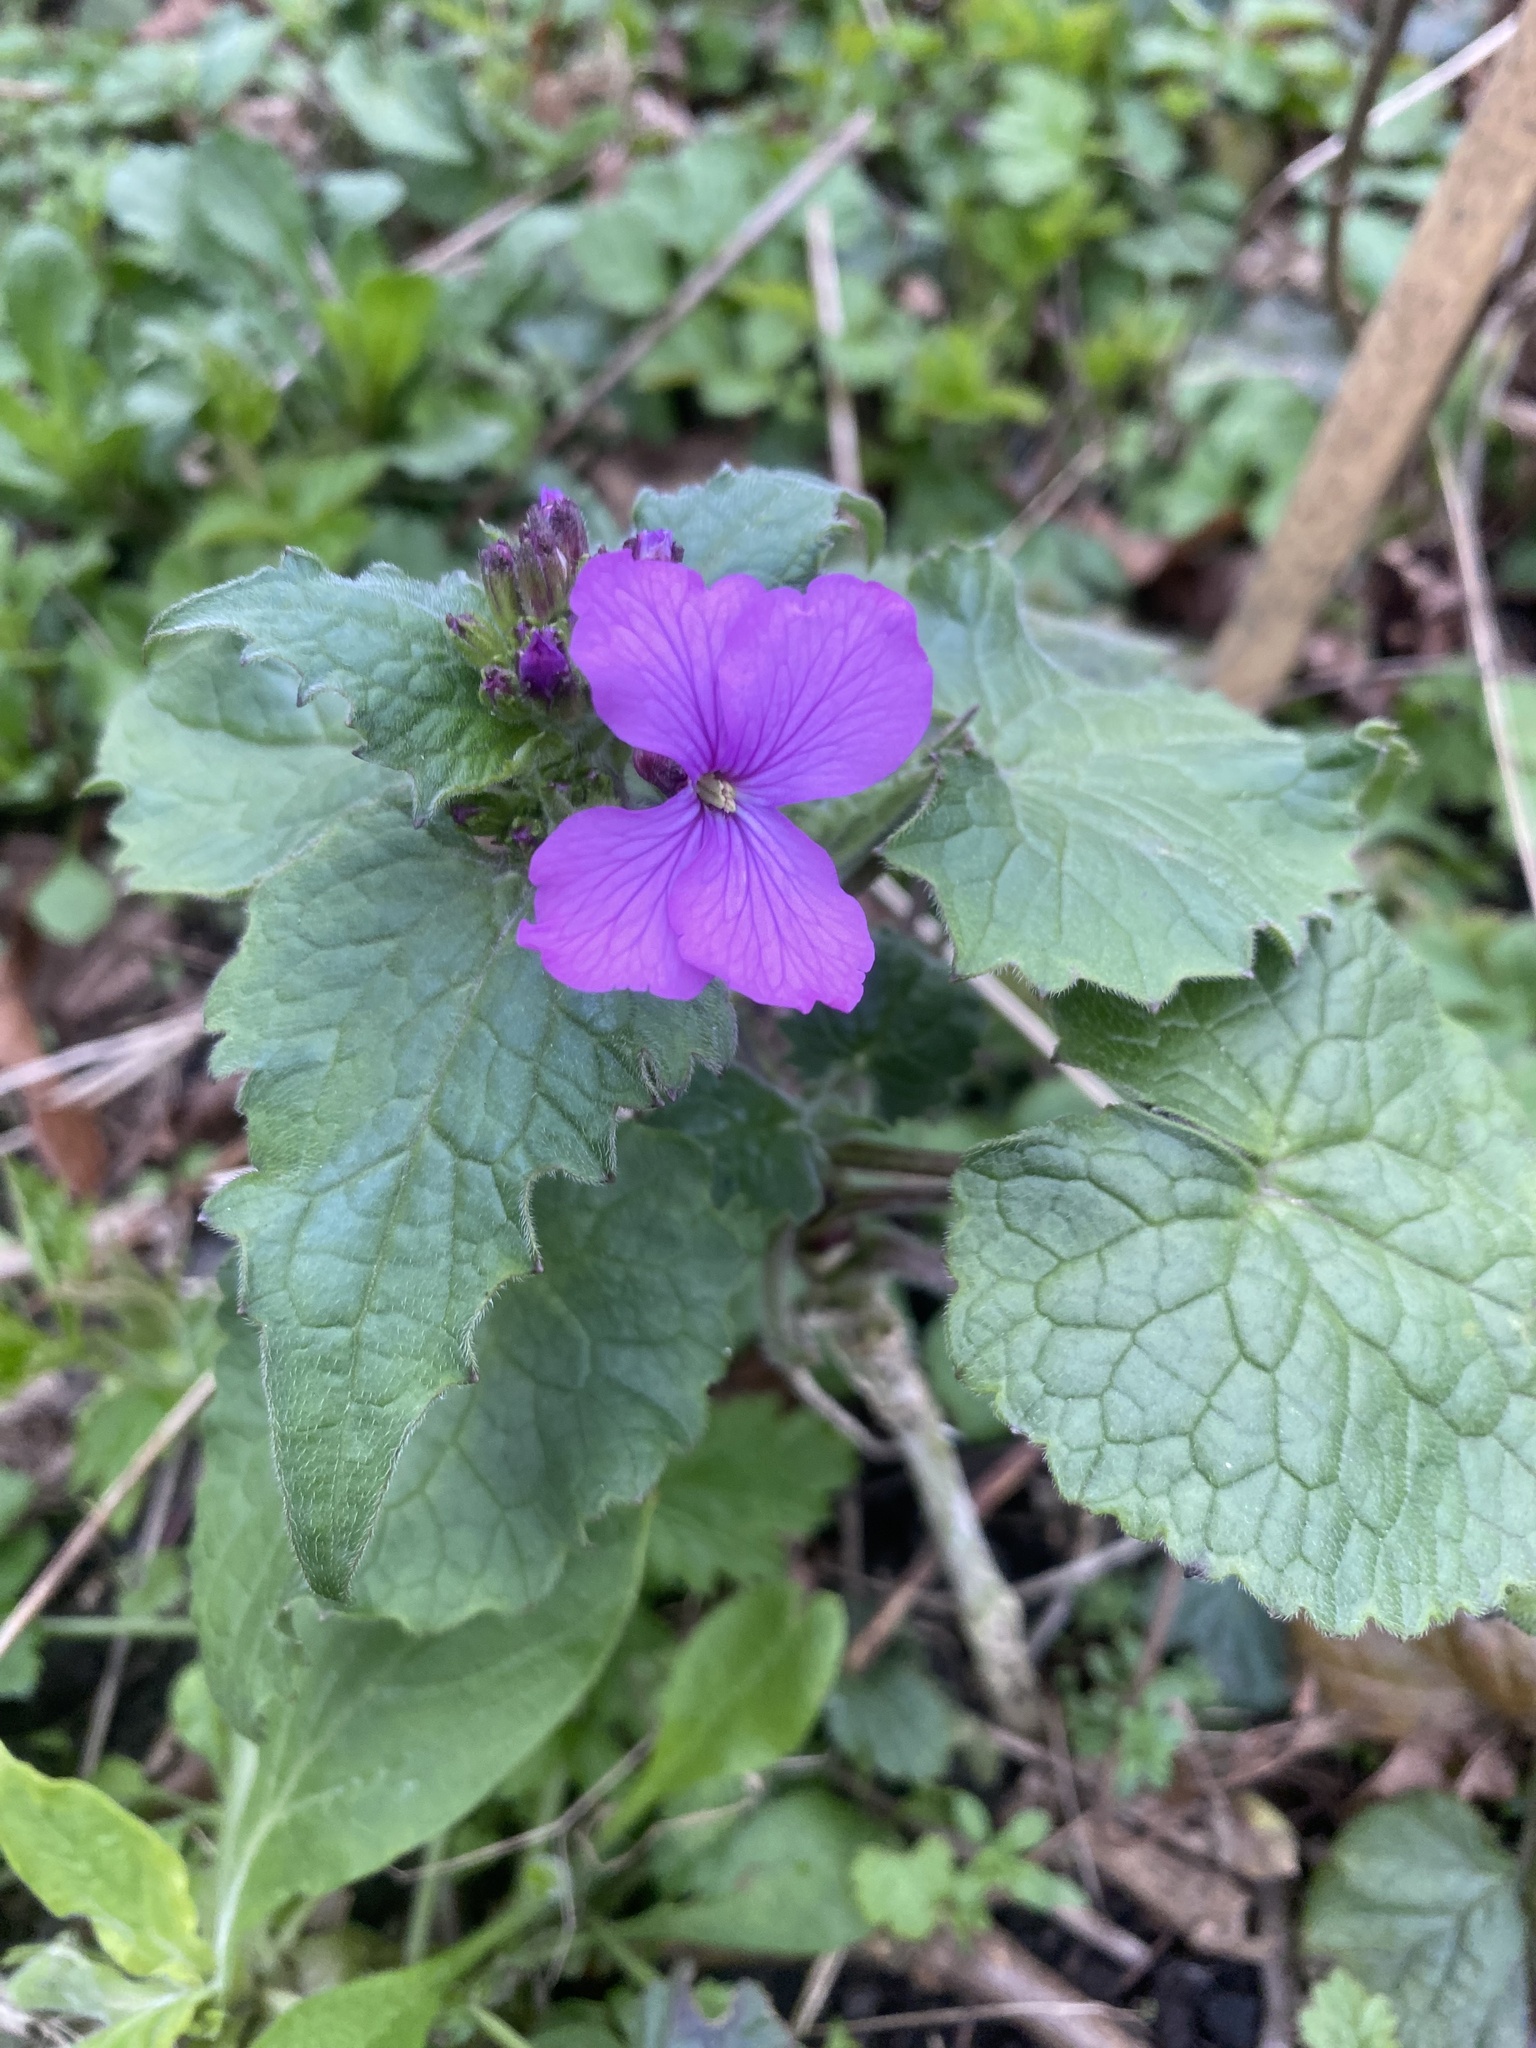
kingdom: Plantae
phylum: Tracheophyta
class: Magnoliopsida
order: Brassicales
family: Brassicaceae
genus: Lunaria
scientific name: Lunaria annua
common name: Honesty
